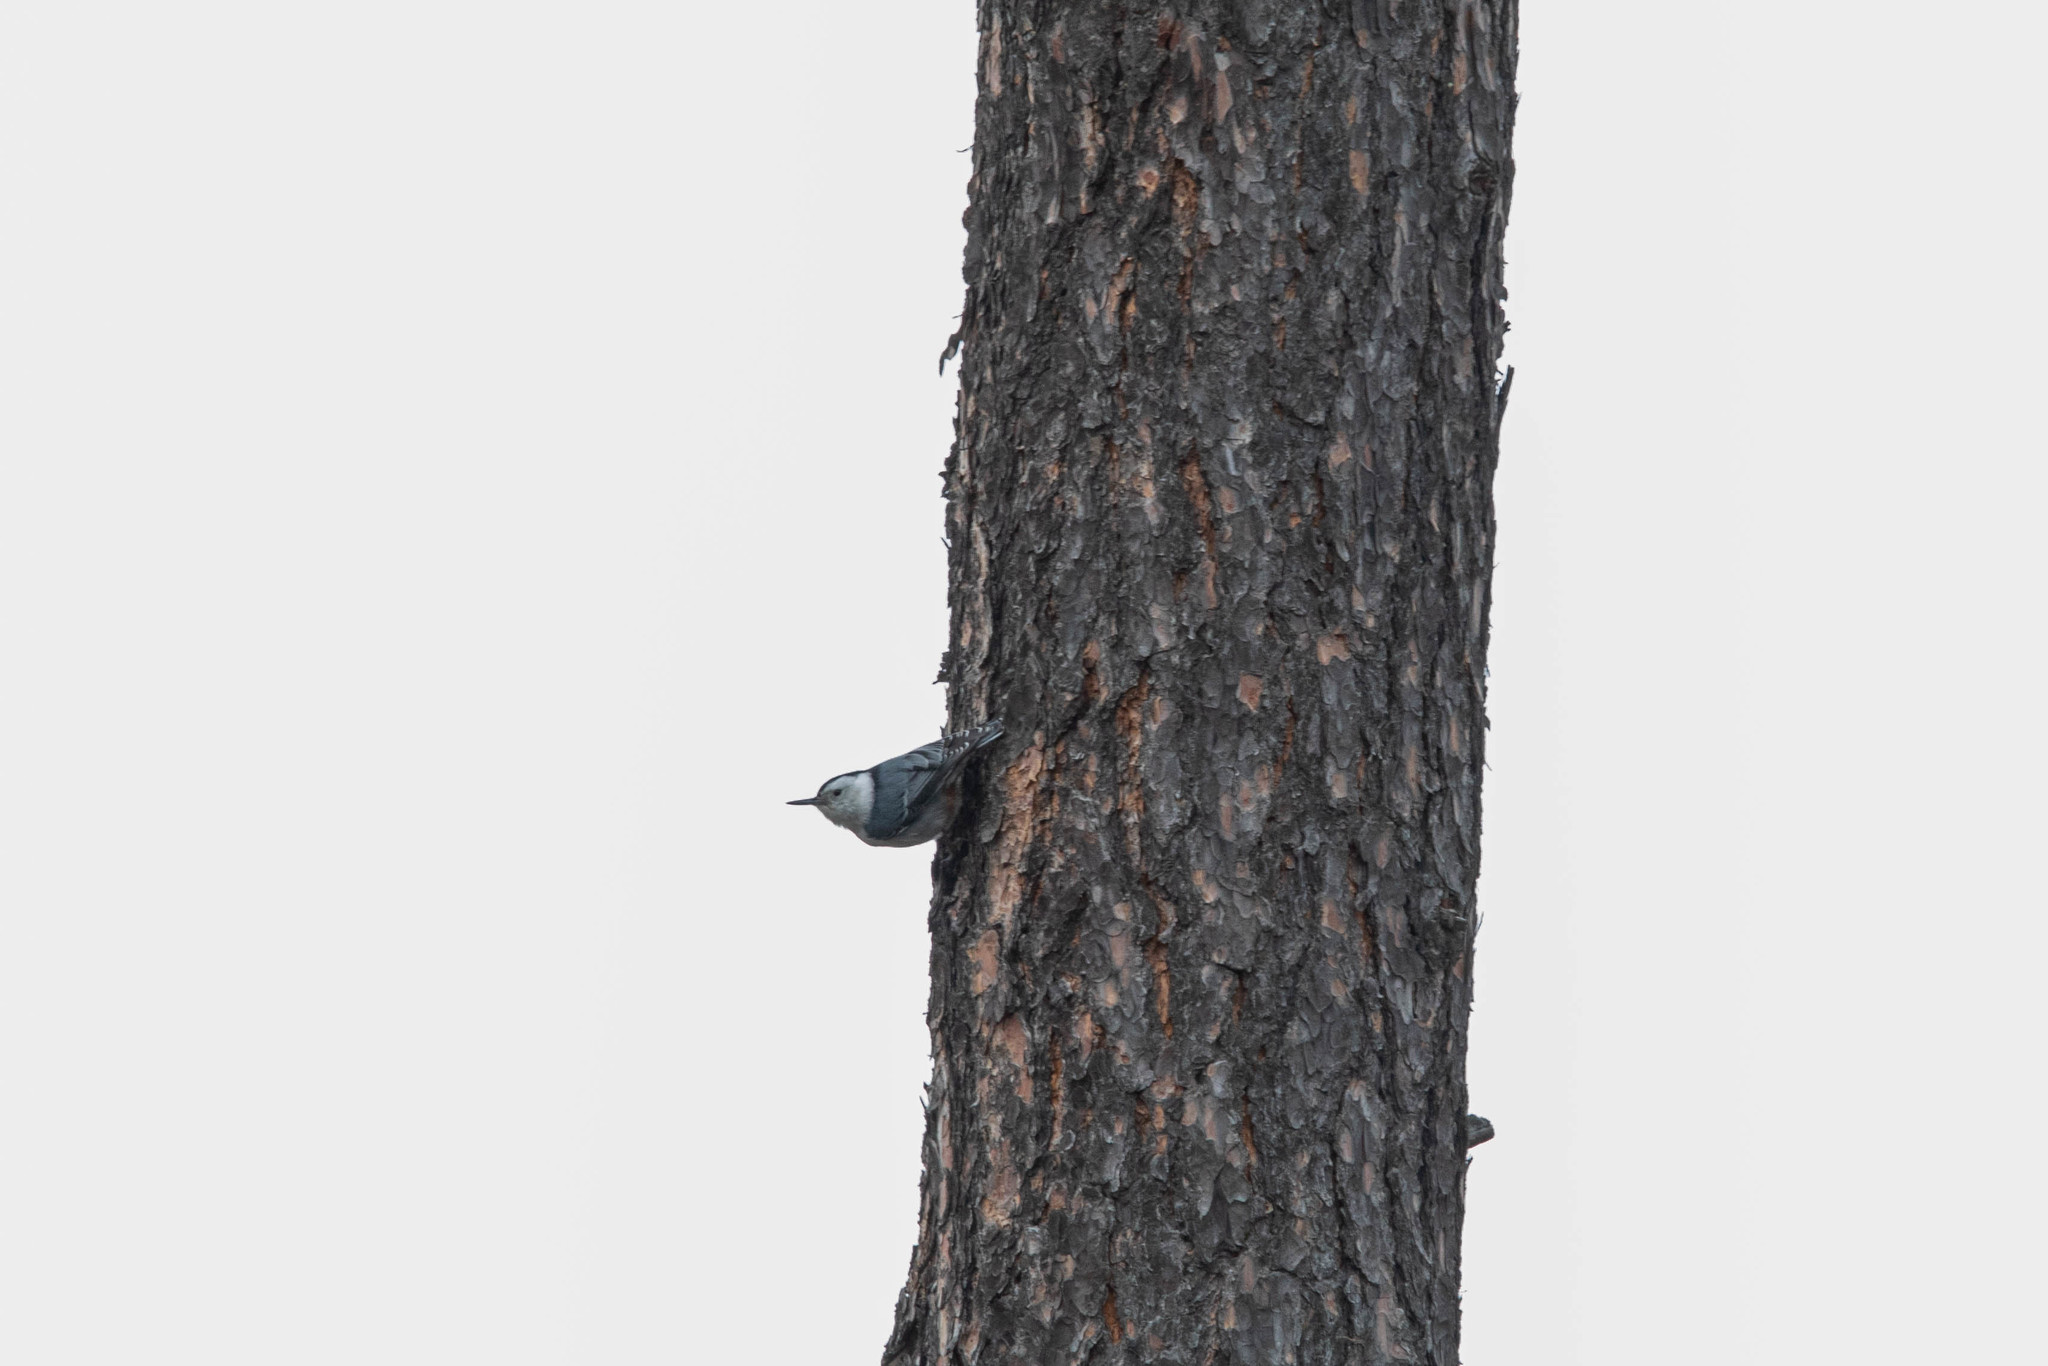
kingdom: Animalia
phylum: Chordata
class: Aves
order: Passeriformes
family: Sittidae
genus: Sitta
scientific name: Sitta carolinensis
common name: White-breasted nuthatch
